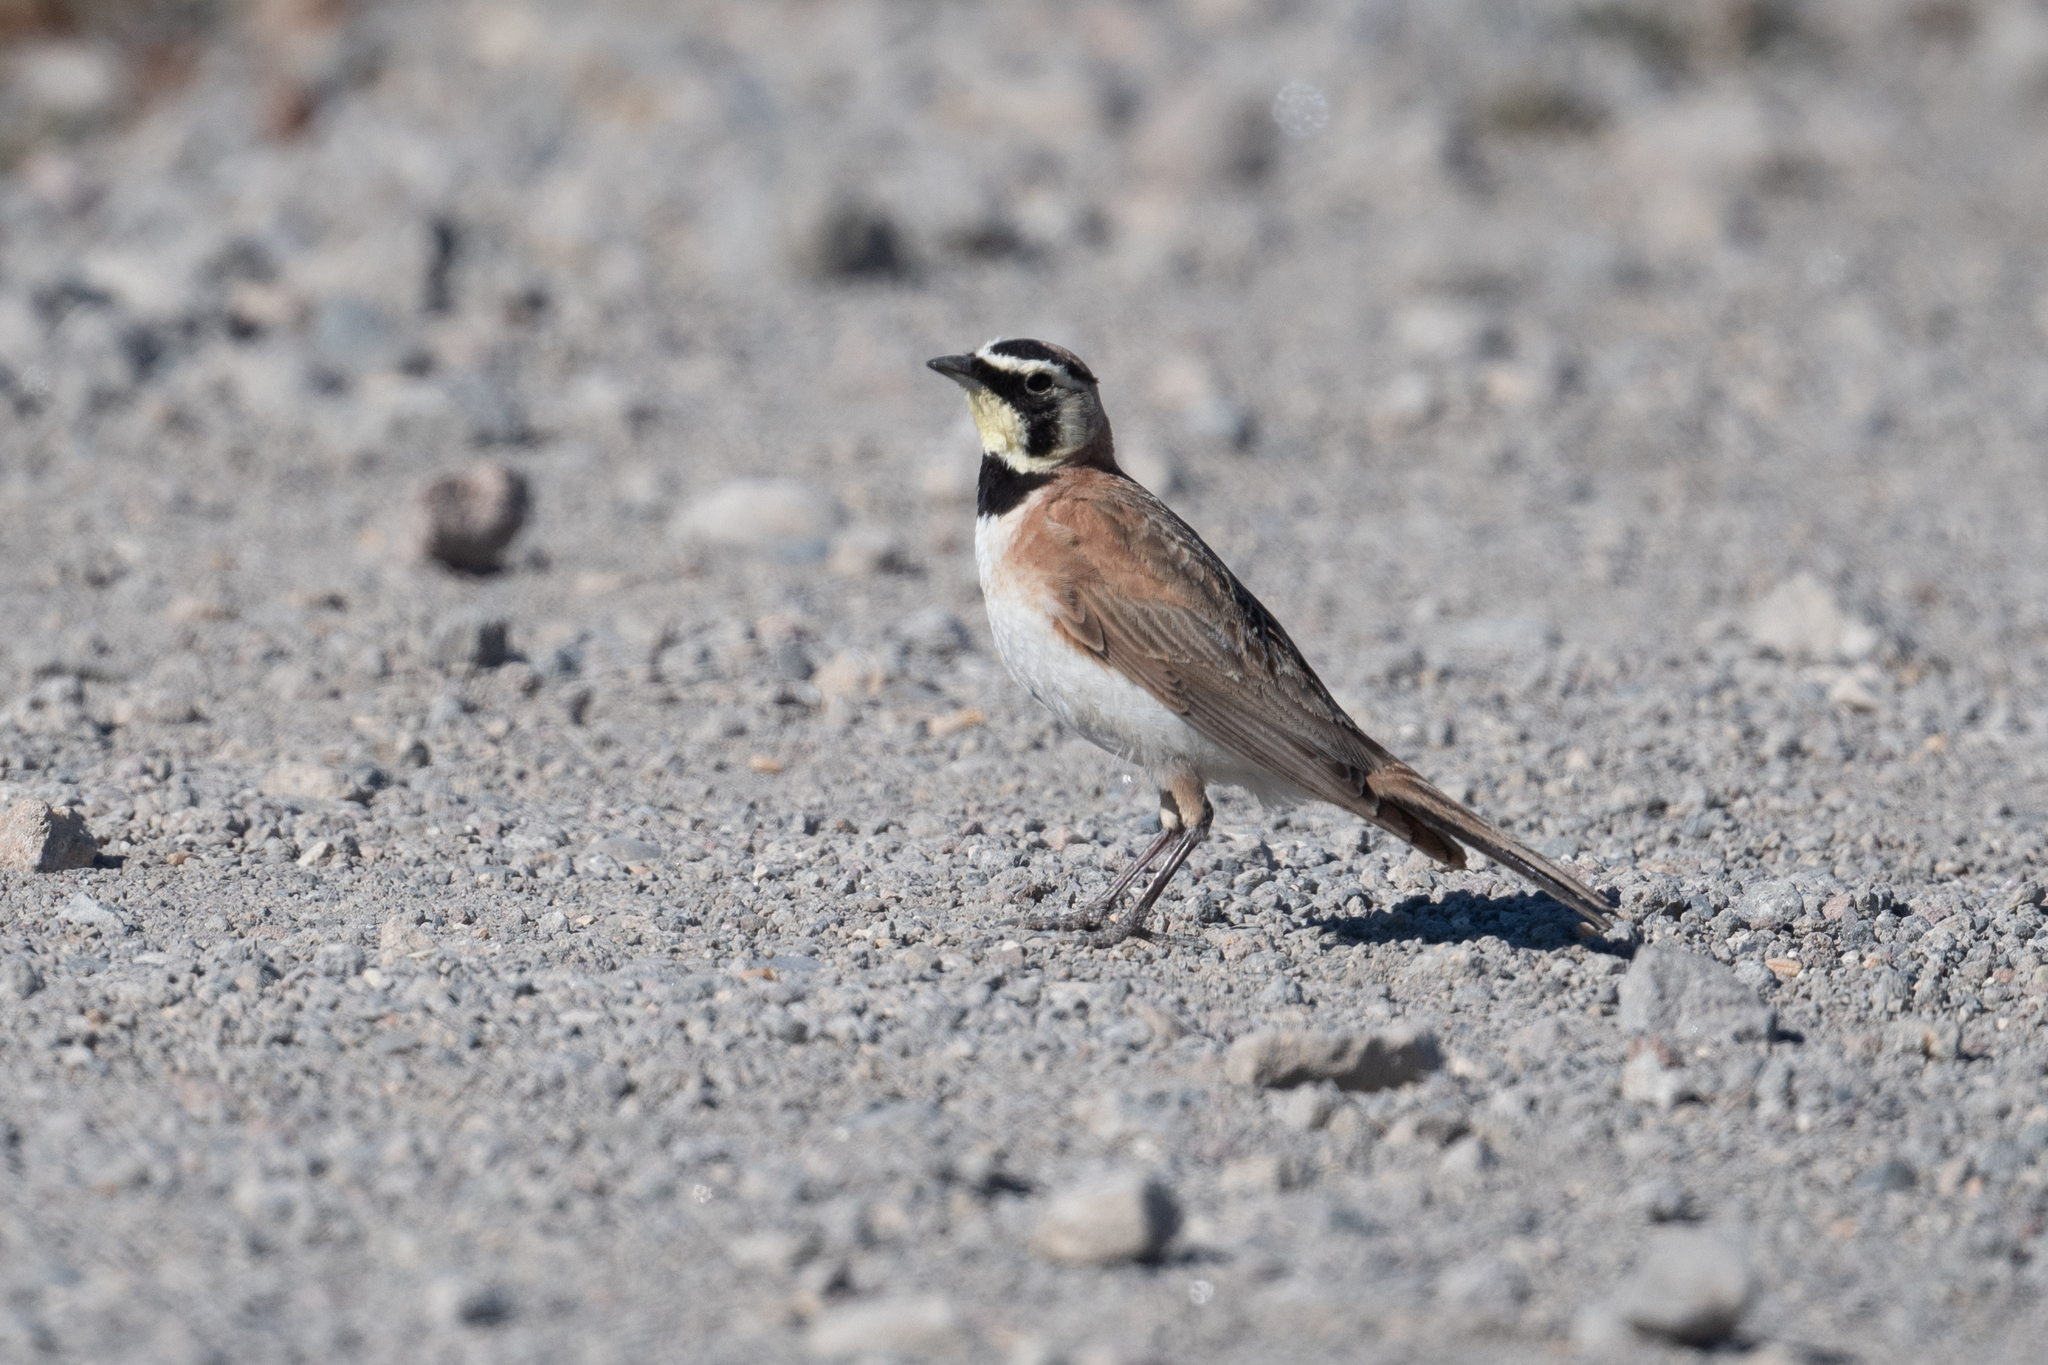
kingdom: Animalia
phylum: Chordata
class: Aves
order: Passeriformes
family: Alaudidae
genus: Eremophila
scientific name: Eremophila alpestris
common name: Horned lark
